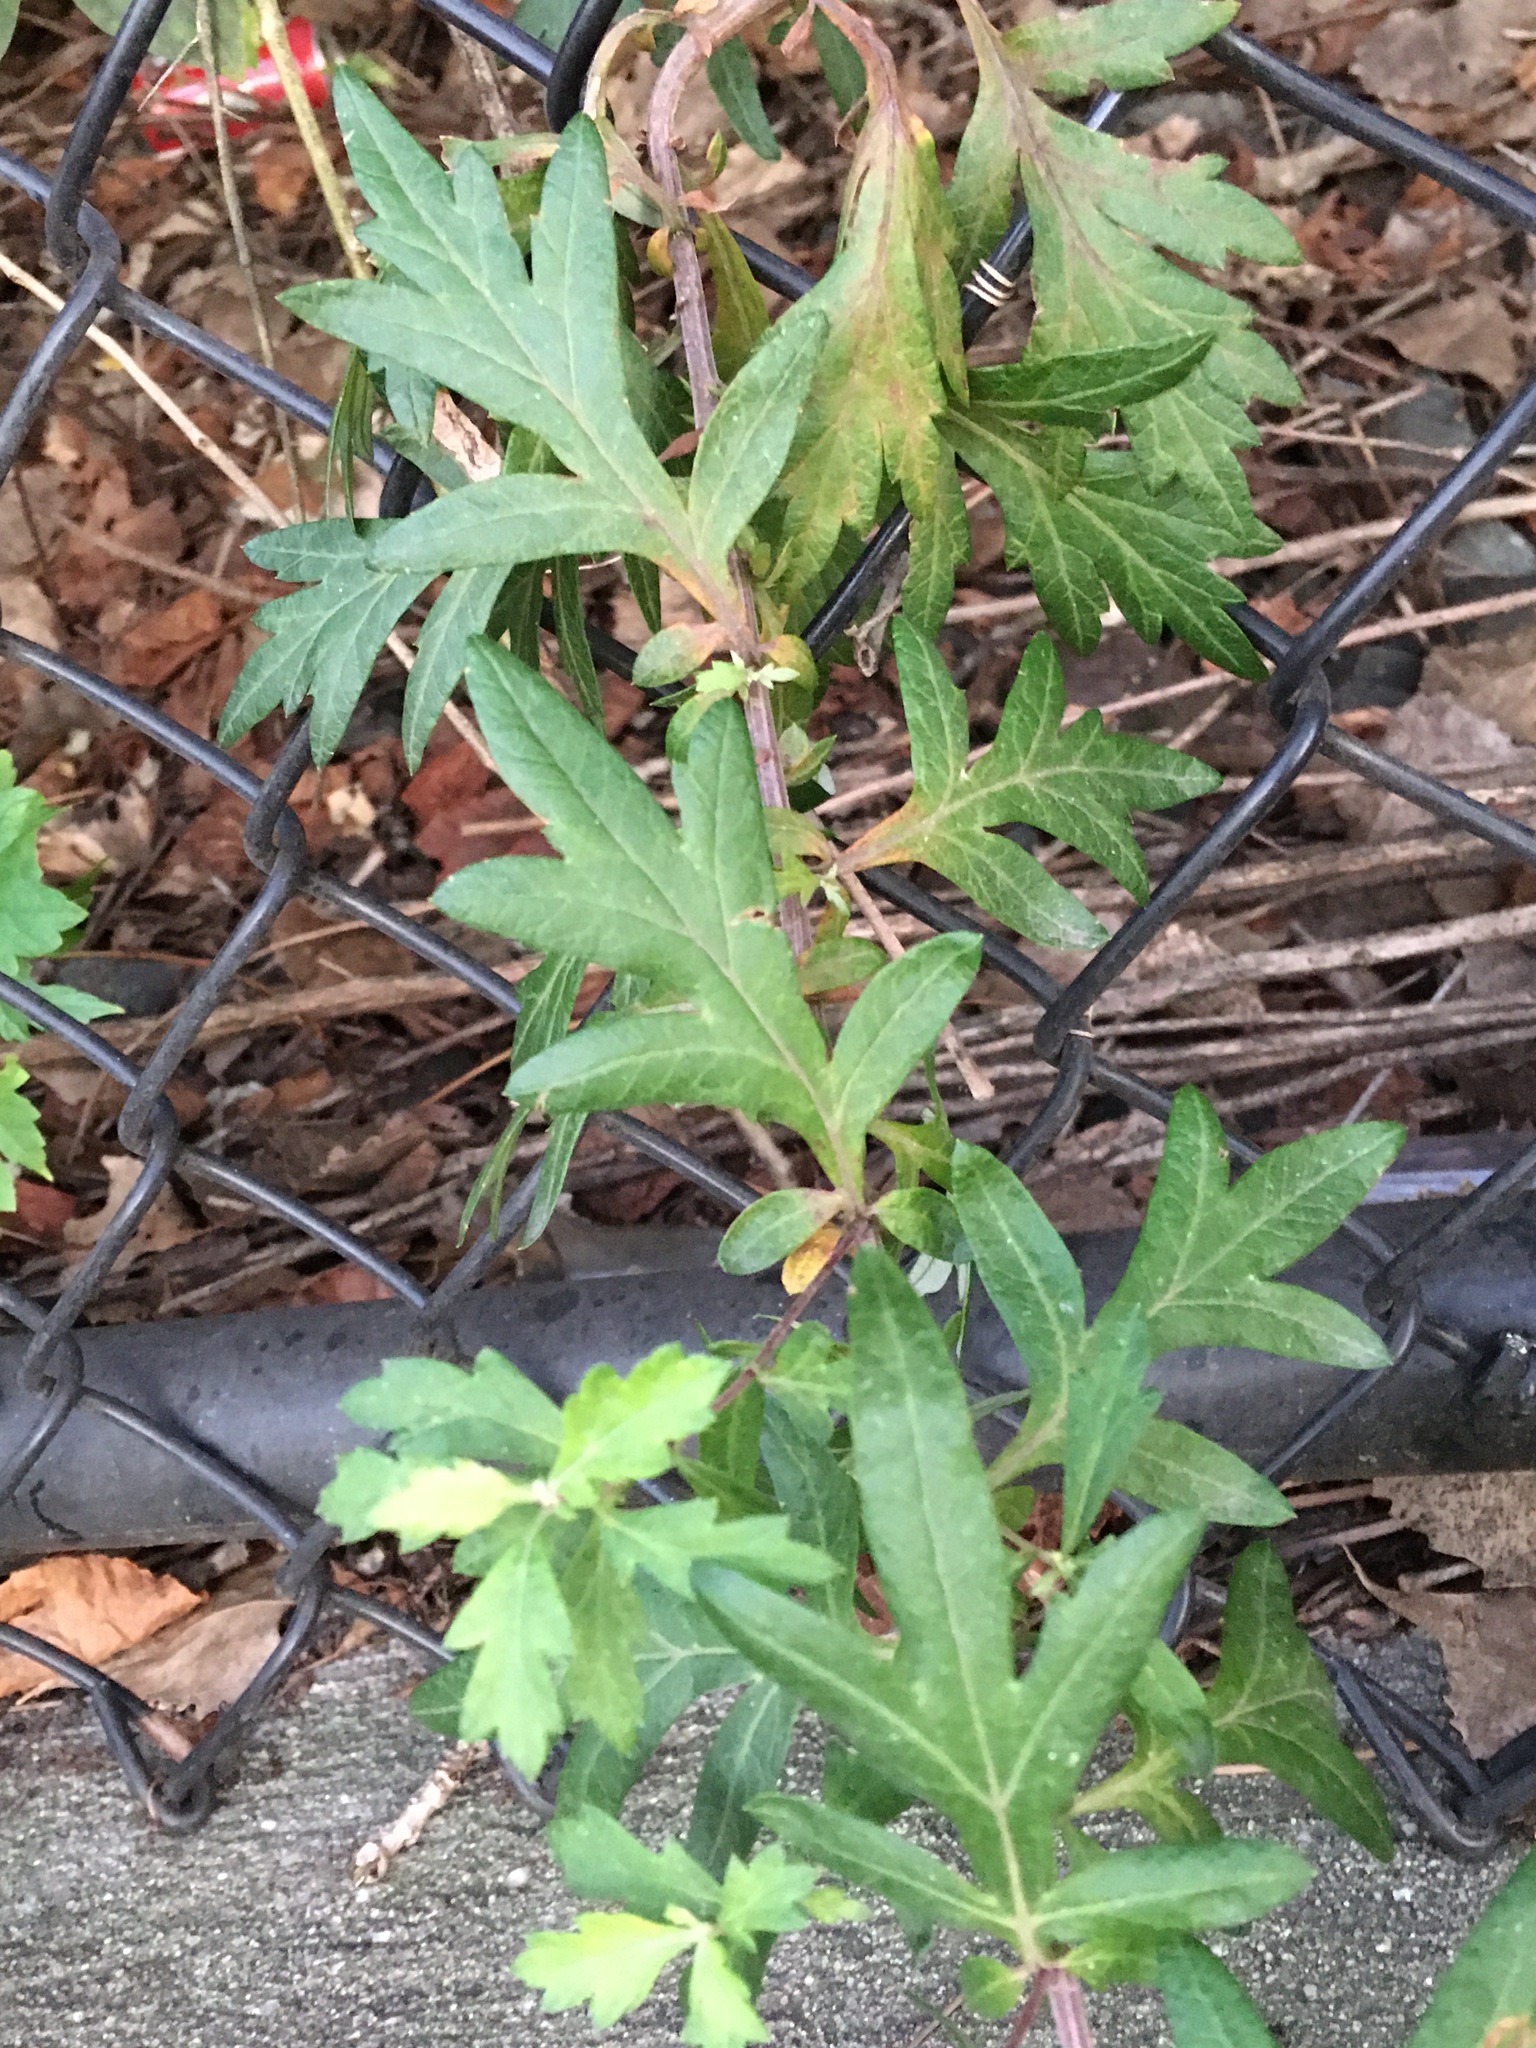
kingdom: Plantae
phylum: Tracheophyta
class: Magnoliopsida
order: Asterales
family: Asteraceae
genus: Artemisia
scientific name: Artemisia vulgaris
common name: Mugwort
